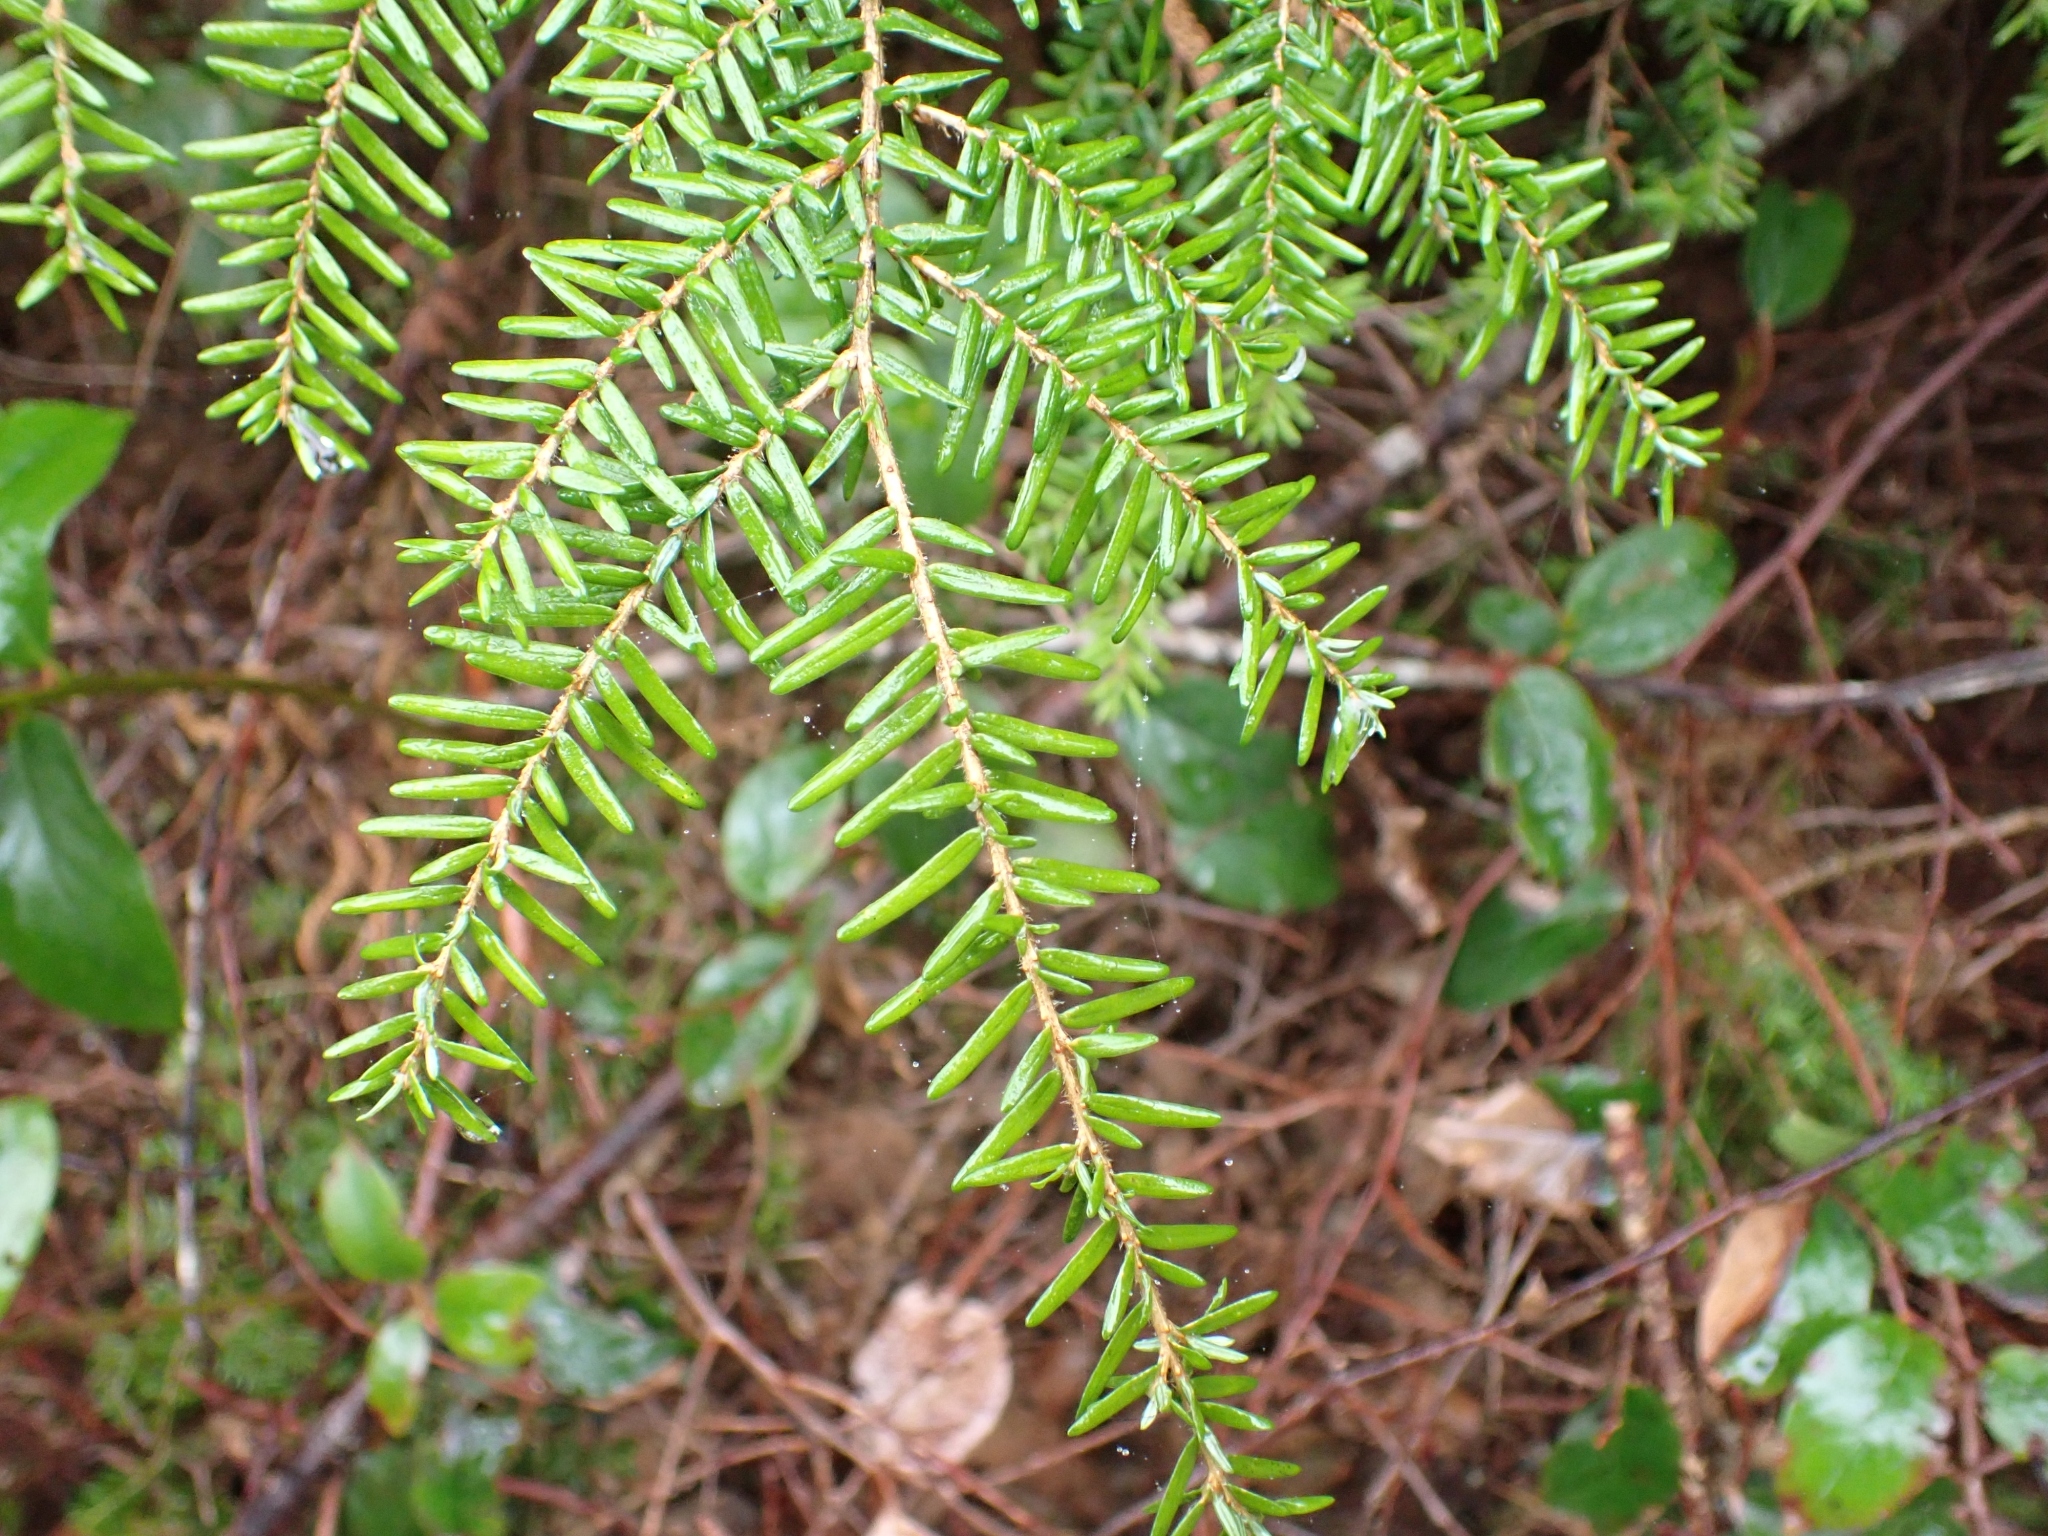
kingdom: Plantae
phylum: Tracheophyta
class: Pinopsida
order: Pinales
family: Pinaceae
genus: Tsuga
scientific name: Tsuga heterophylla
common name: Western hemlock
